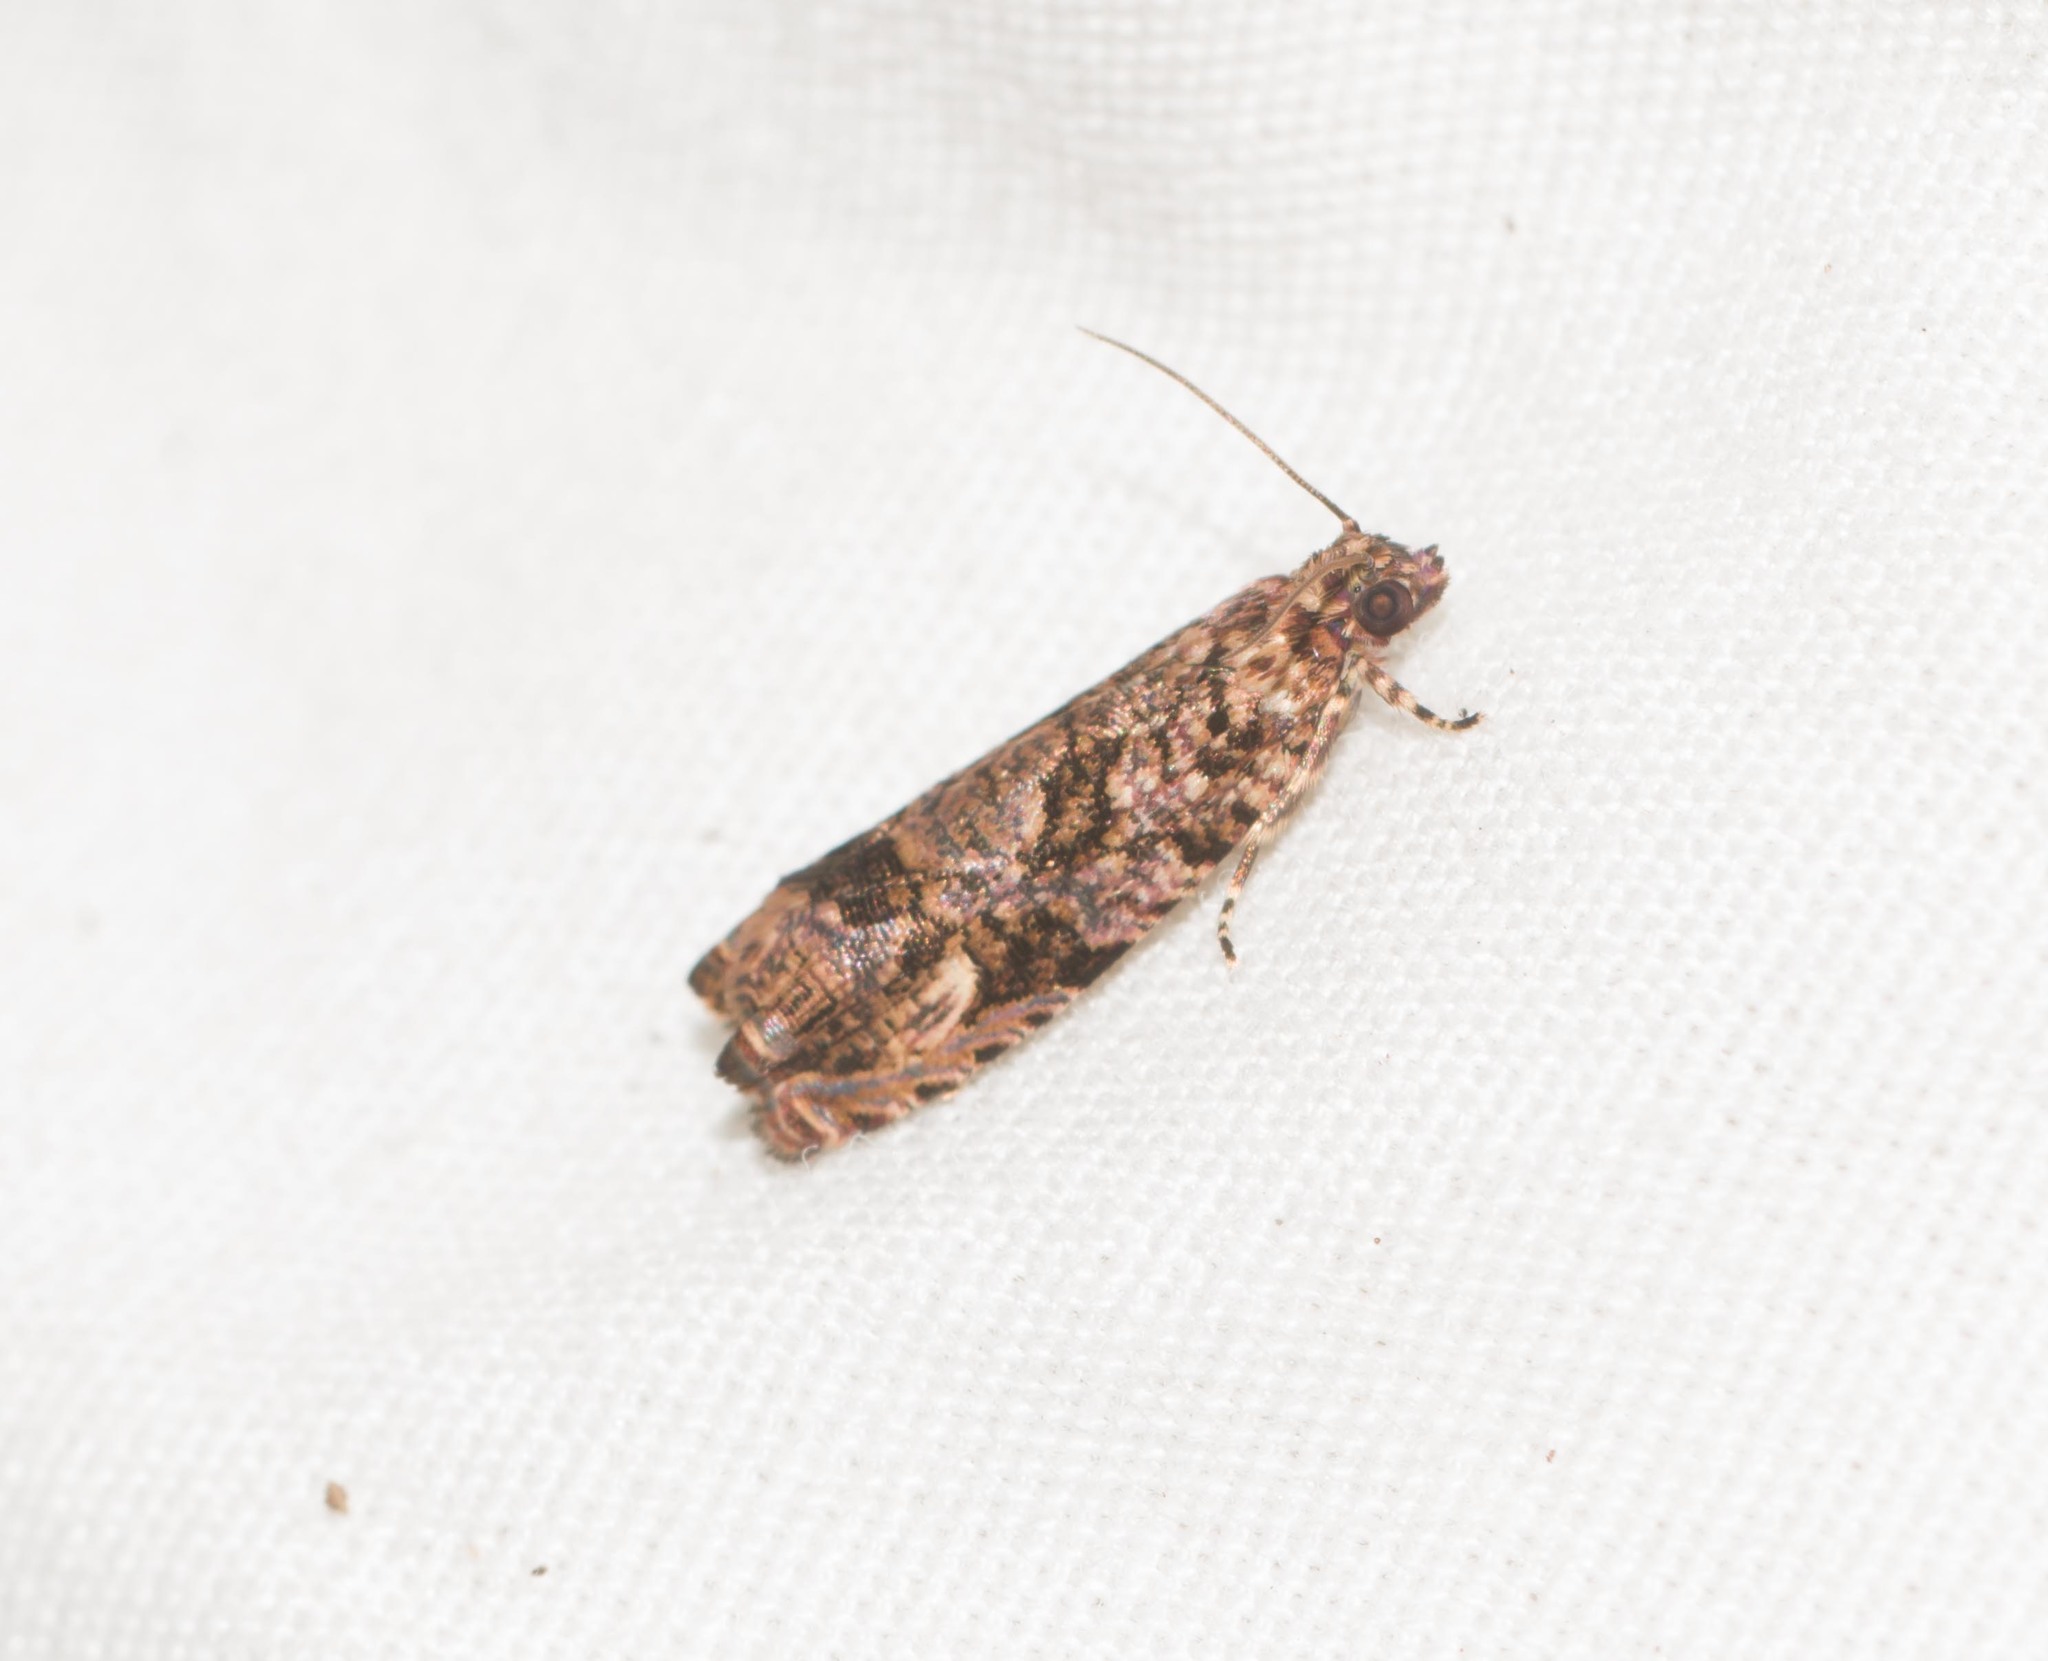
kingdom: Animalia
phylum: Arthropoda
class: Insecta
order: Lepidoptera
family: Tortricidae
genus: Episimus
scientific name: Episimus unguiculus
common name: Brazilian peppertree leaflet rolling moth
